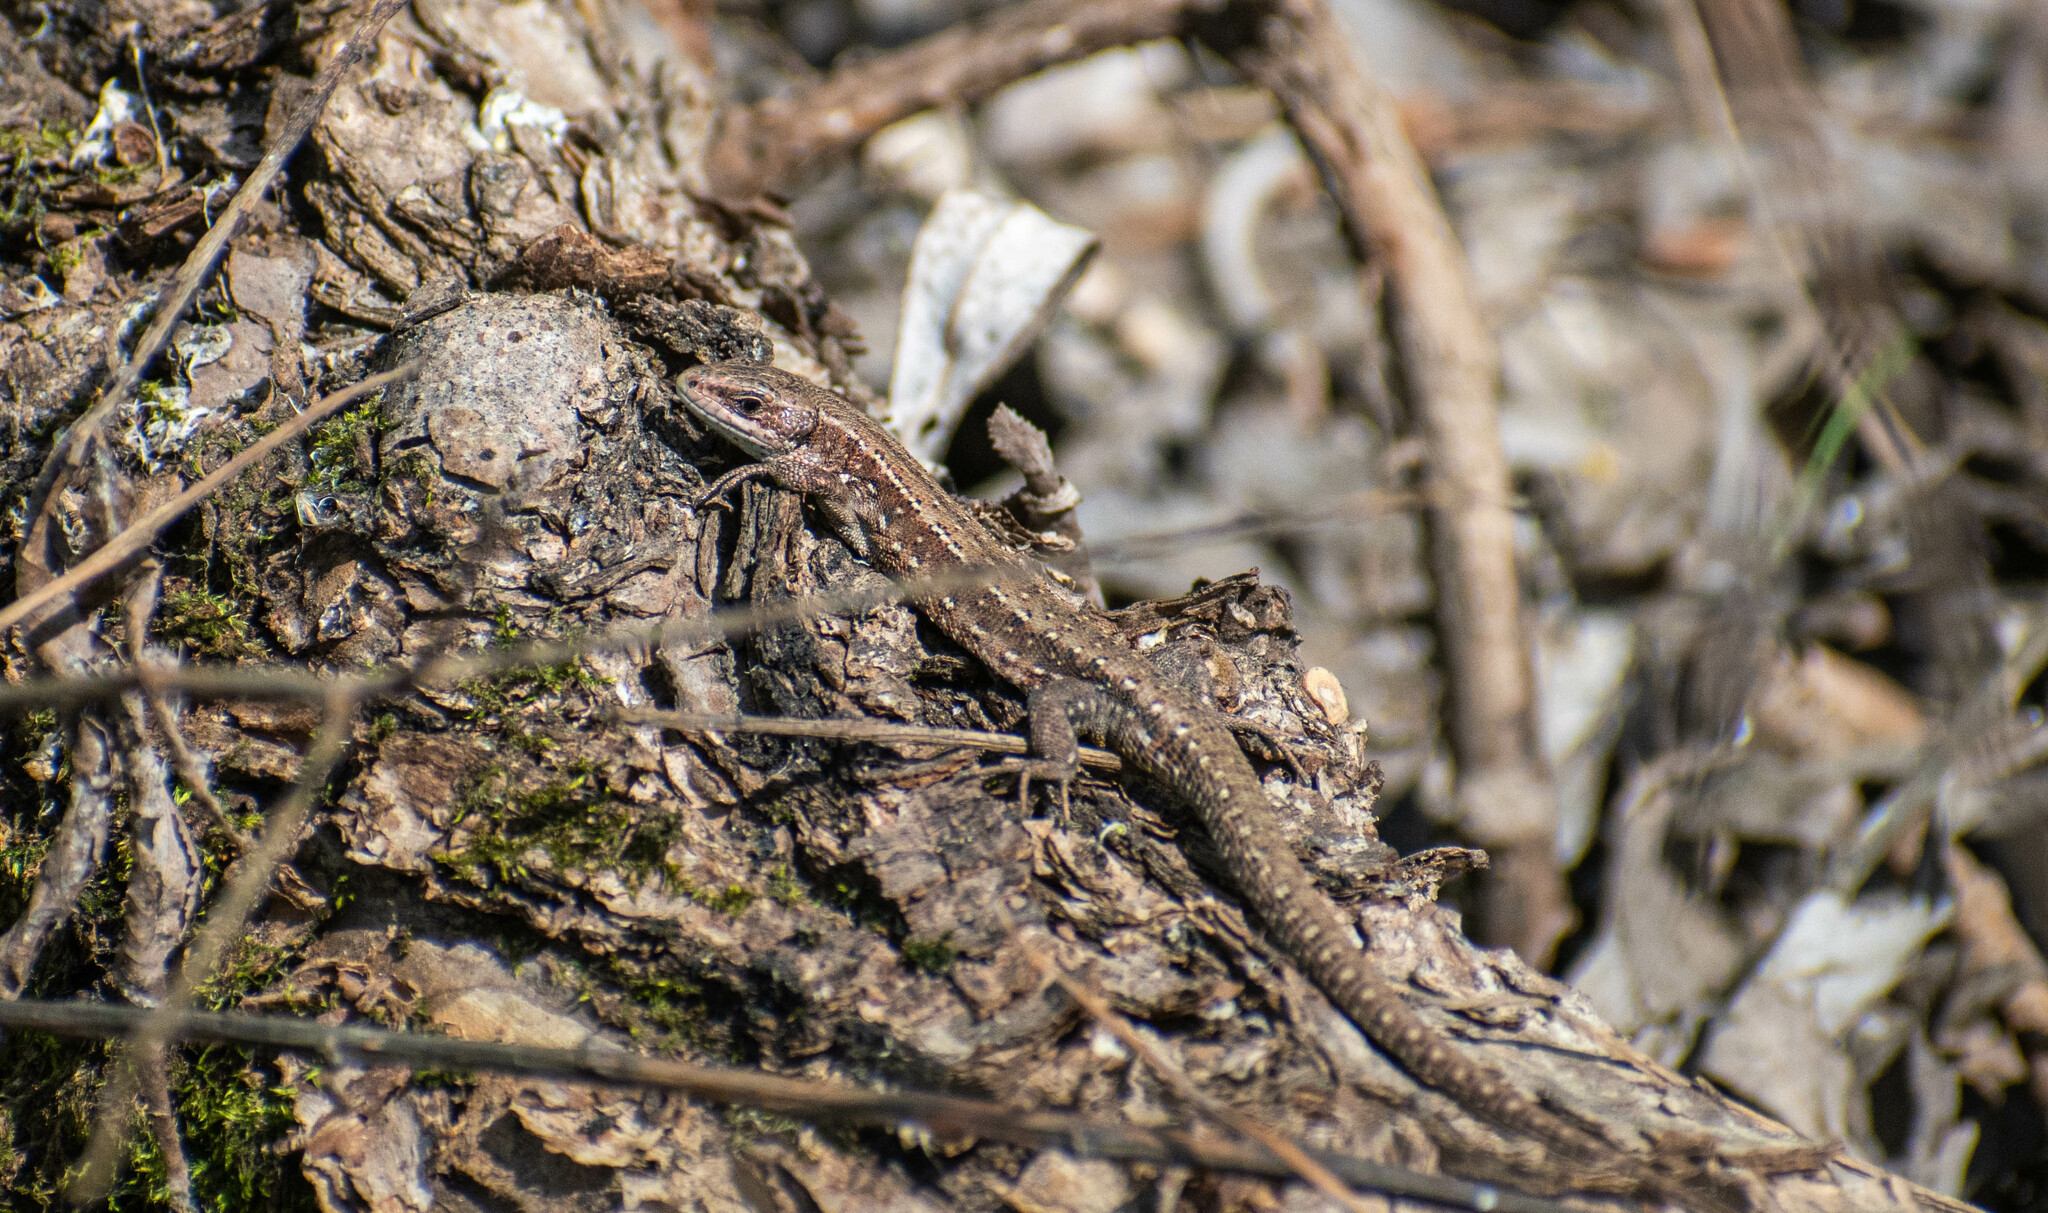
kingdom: Animalia
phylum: Chordata
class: Squamata
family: Lacertidae
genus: Zootoca
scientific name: Zootoca vivipara
